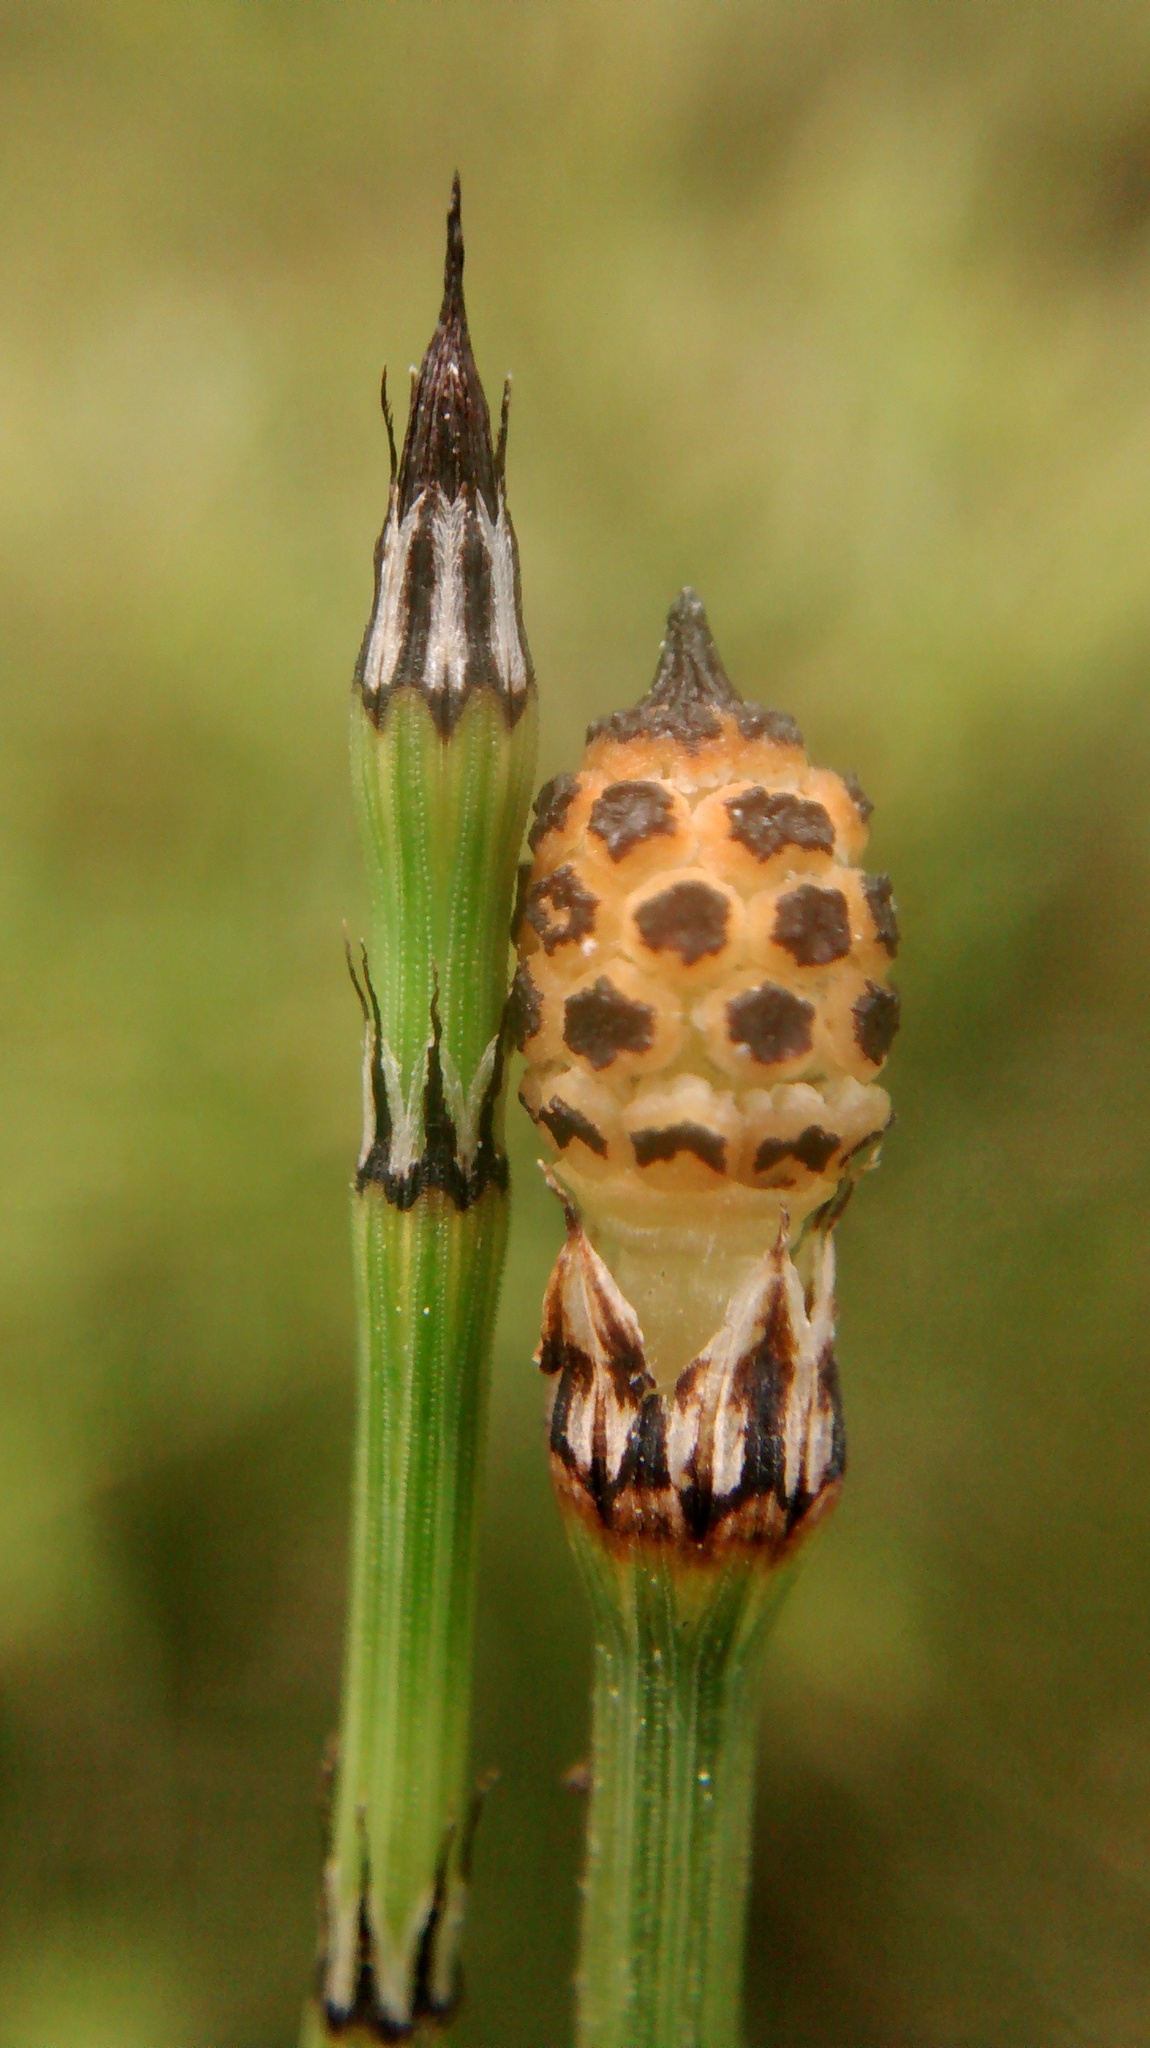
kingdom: Plantae
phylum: Tracheophyta
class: Polypodiopsida
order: Equisetales
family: Equisetaceae
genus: Equisetum
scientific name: Equisetum variegatum
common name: Variegated horsetail
